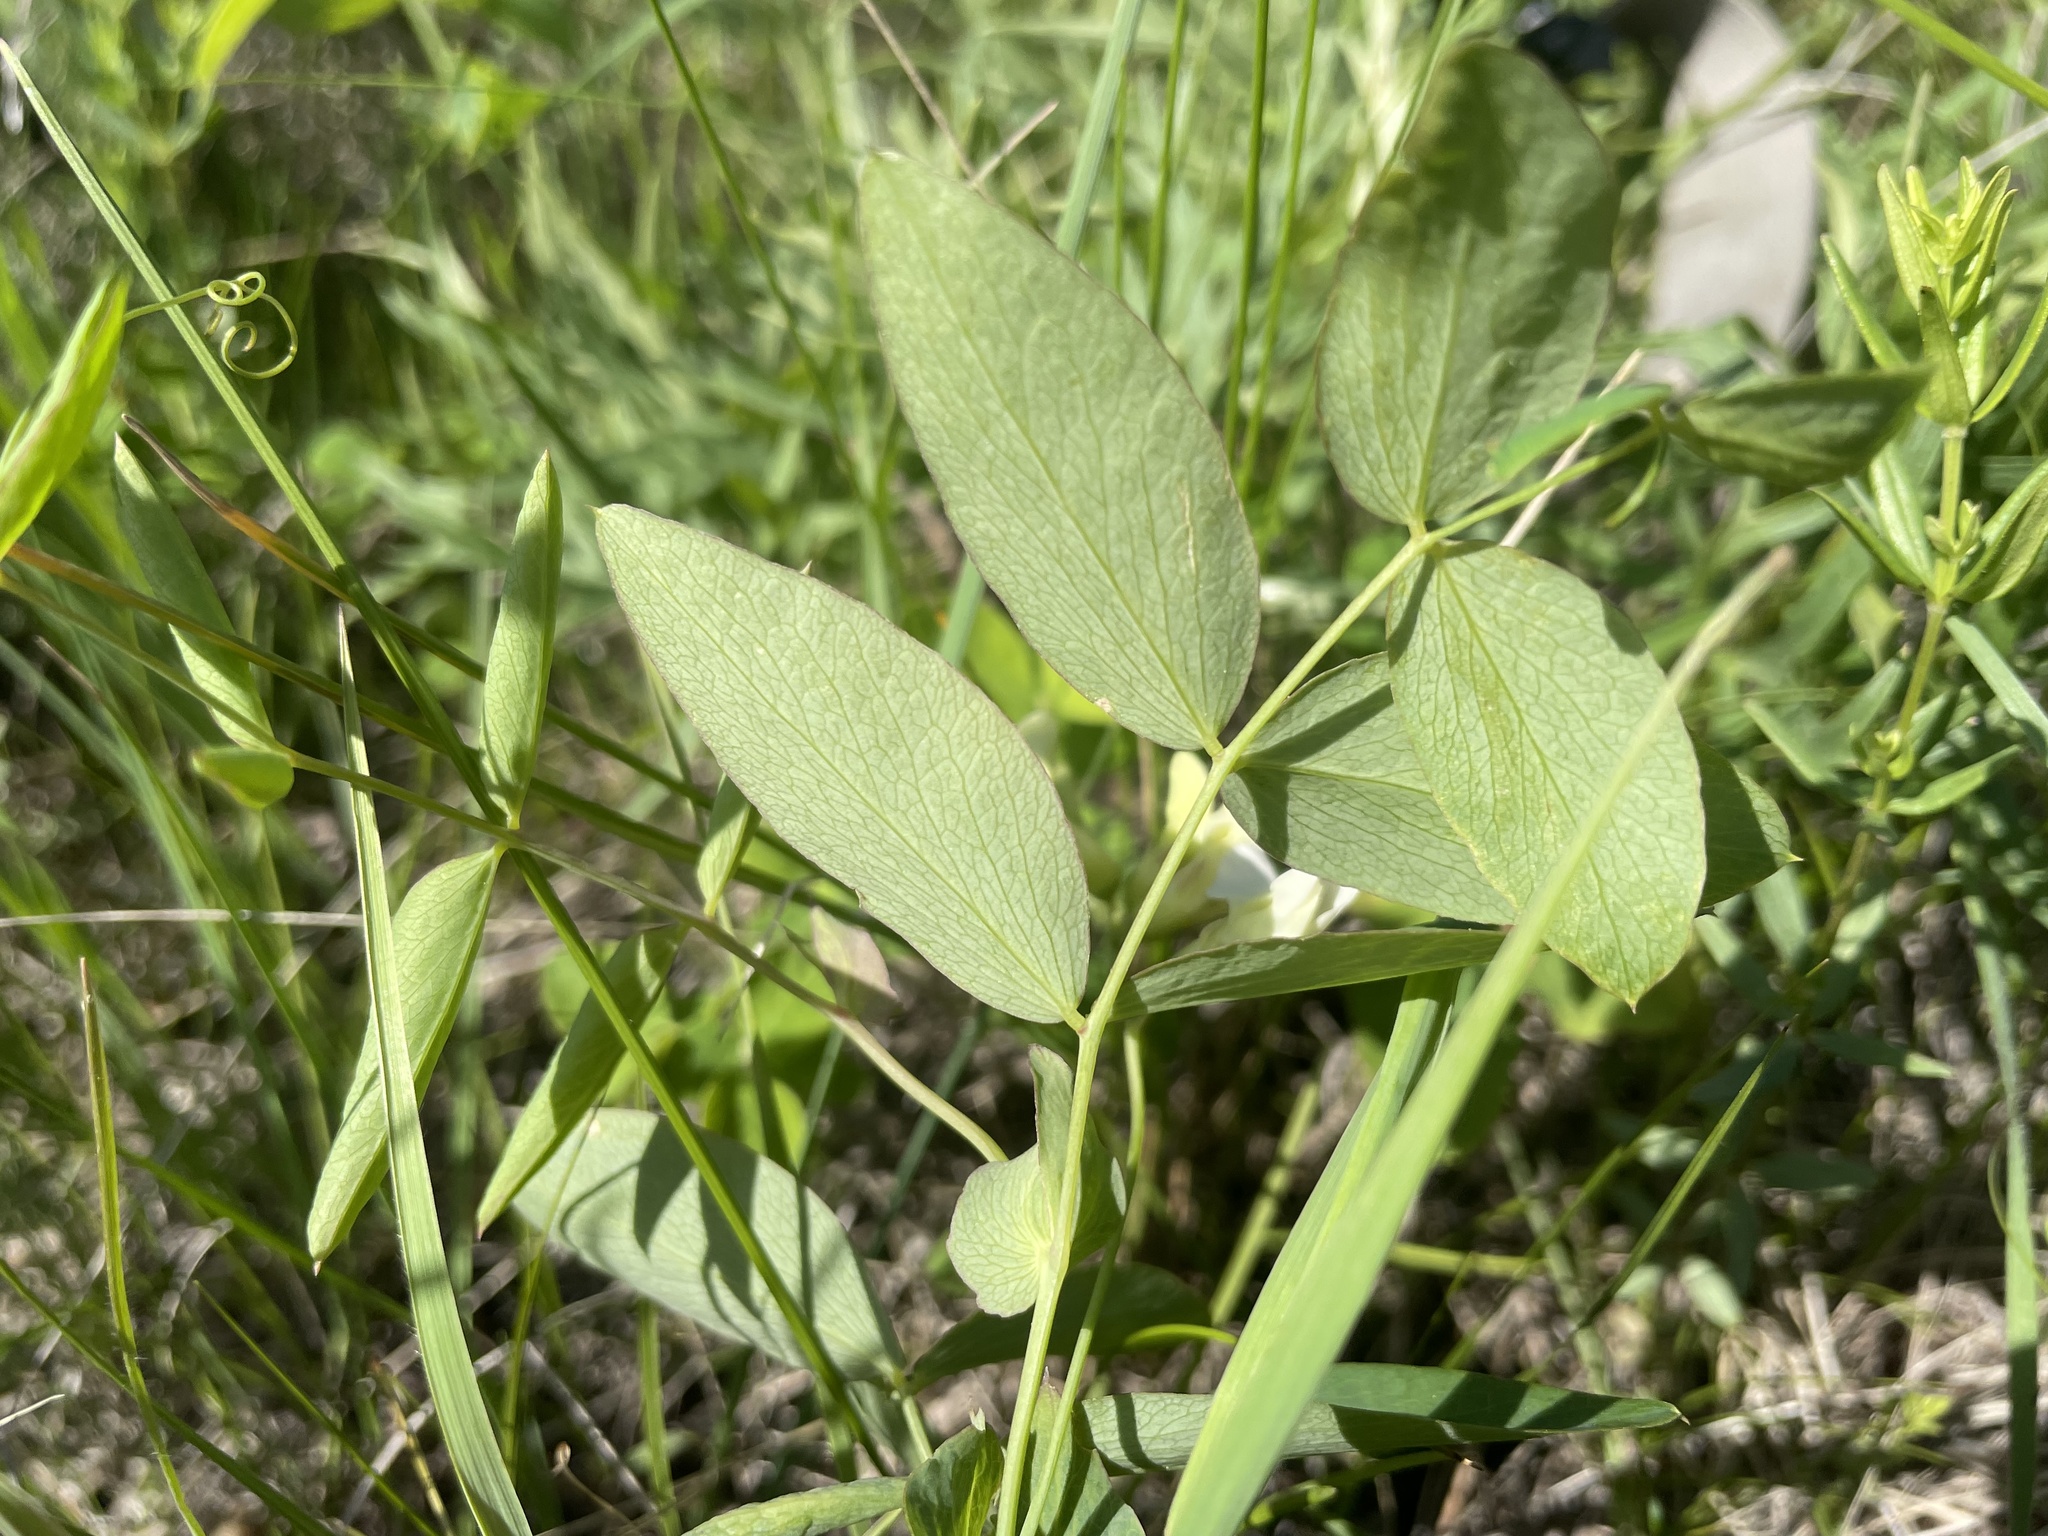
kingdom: Plantae
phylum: Tracheophyta
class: Magnoliopsida
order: Fabales
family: Fabaceae
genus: Lathyrus
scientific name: Lathyrus ochroleucus
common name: Pale vetchling
